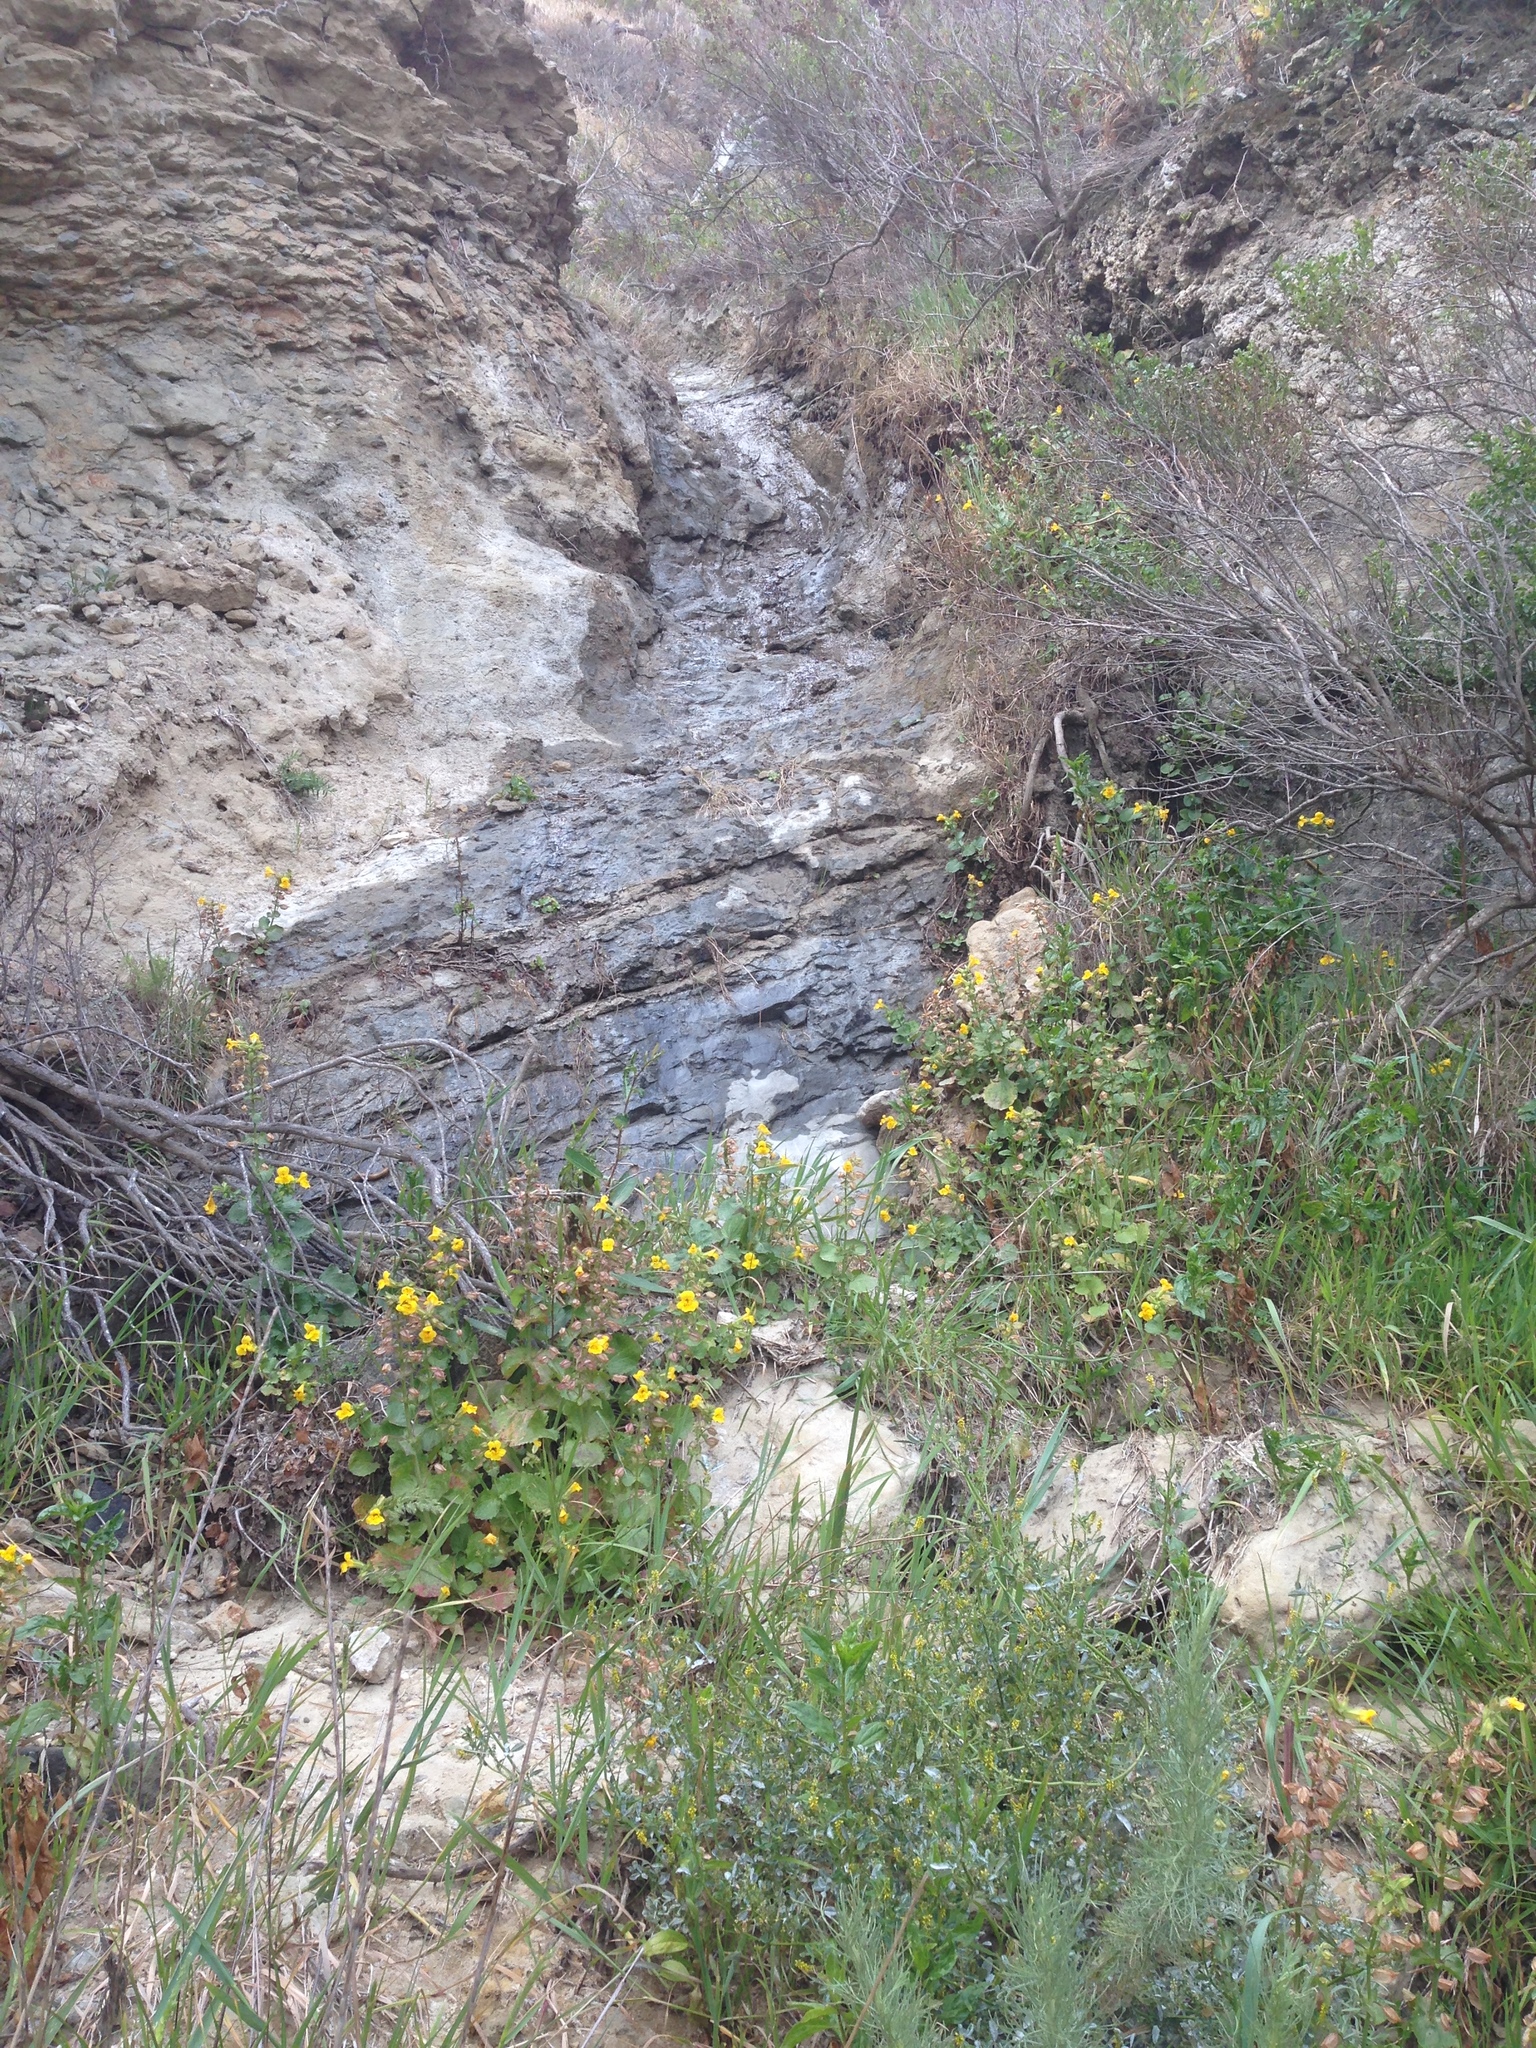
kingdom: Plantae
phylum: Tracheophyta
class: Magnoliopsida
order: Lamiales
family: Phrymaceae
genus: Erythranthe
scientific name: Erythranthe guttata
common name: Monkeyflower
